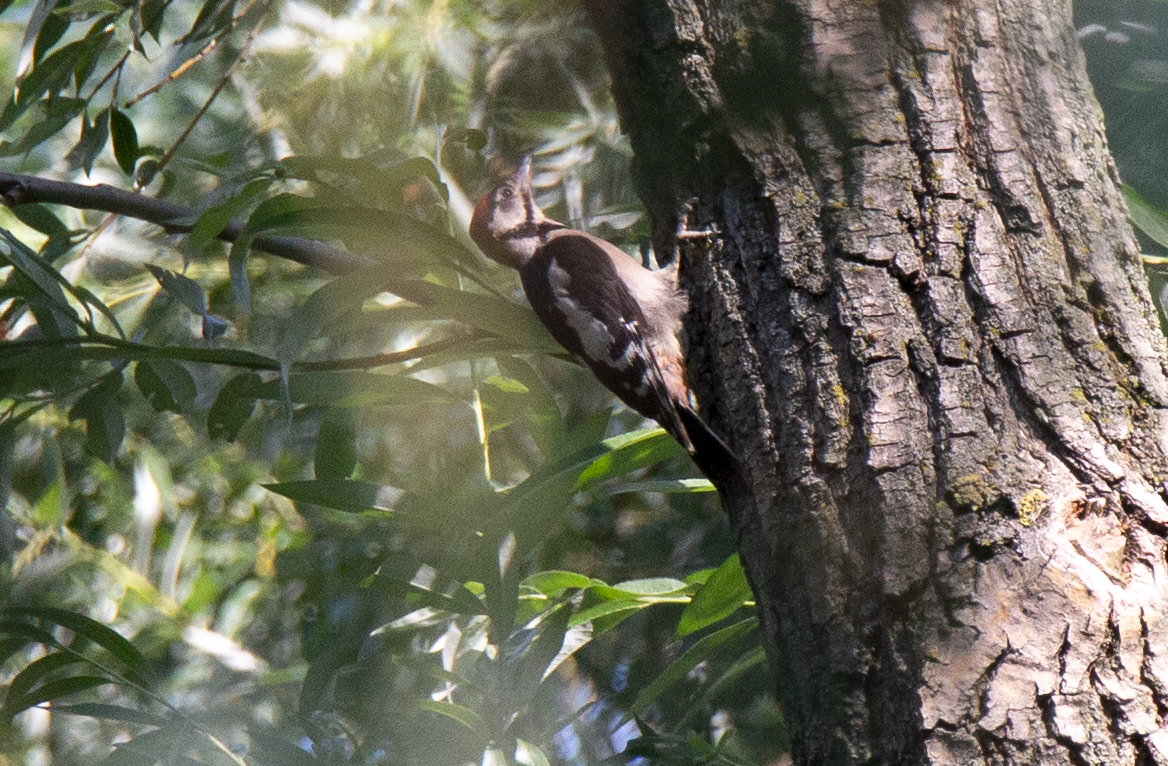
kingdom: Animalia
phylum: Chordata
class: Aves
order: Piciformes
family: Picidae
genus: Dendrocopos
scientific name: Dendrocopos major
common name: Great spotted woodpecker
